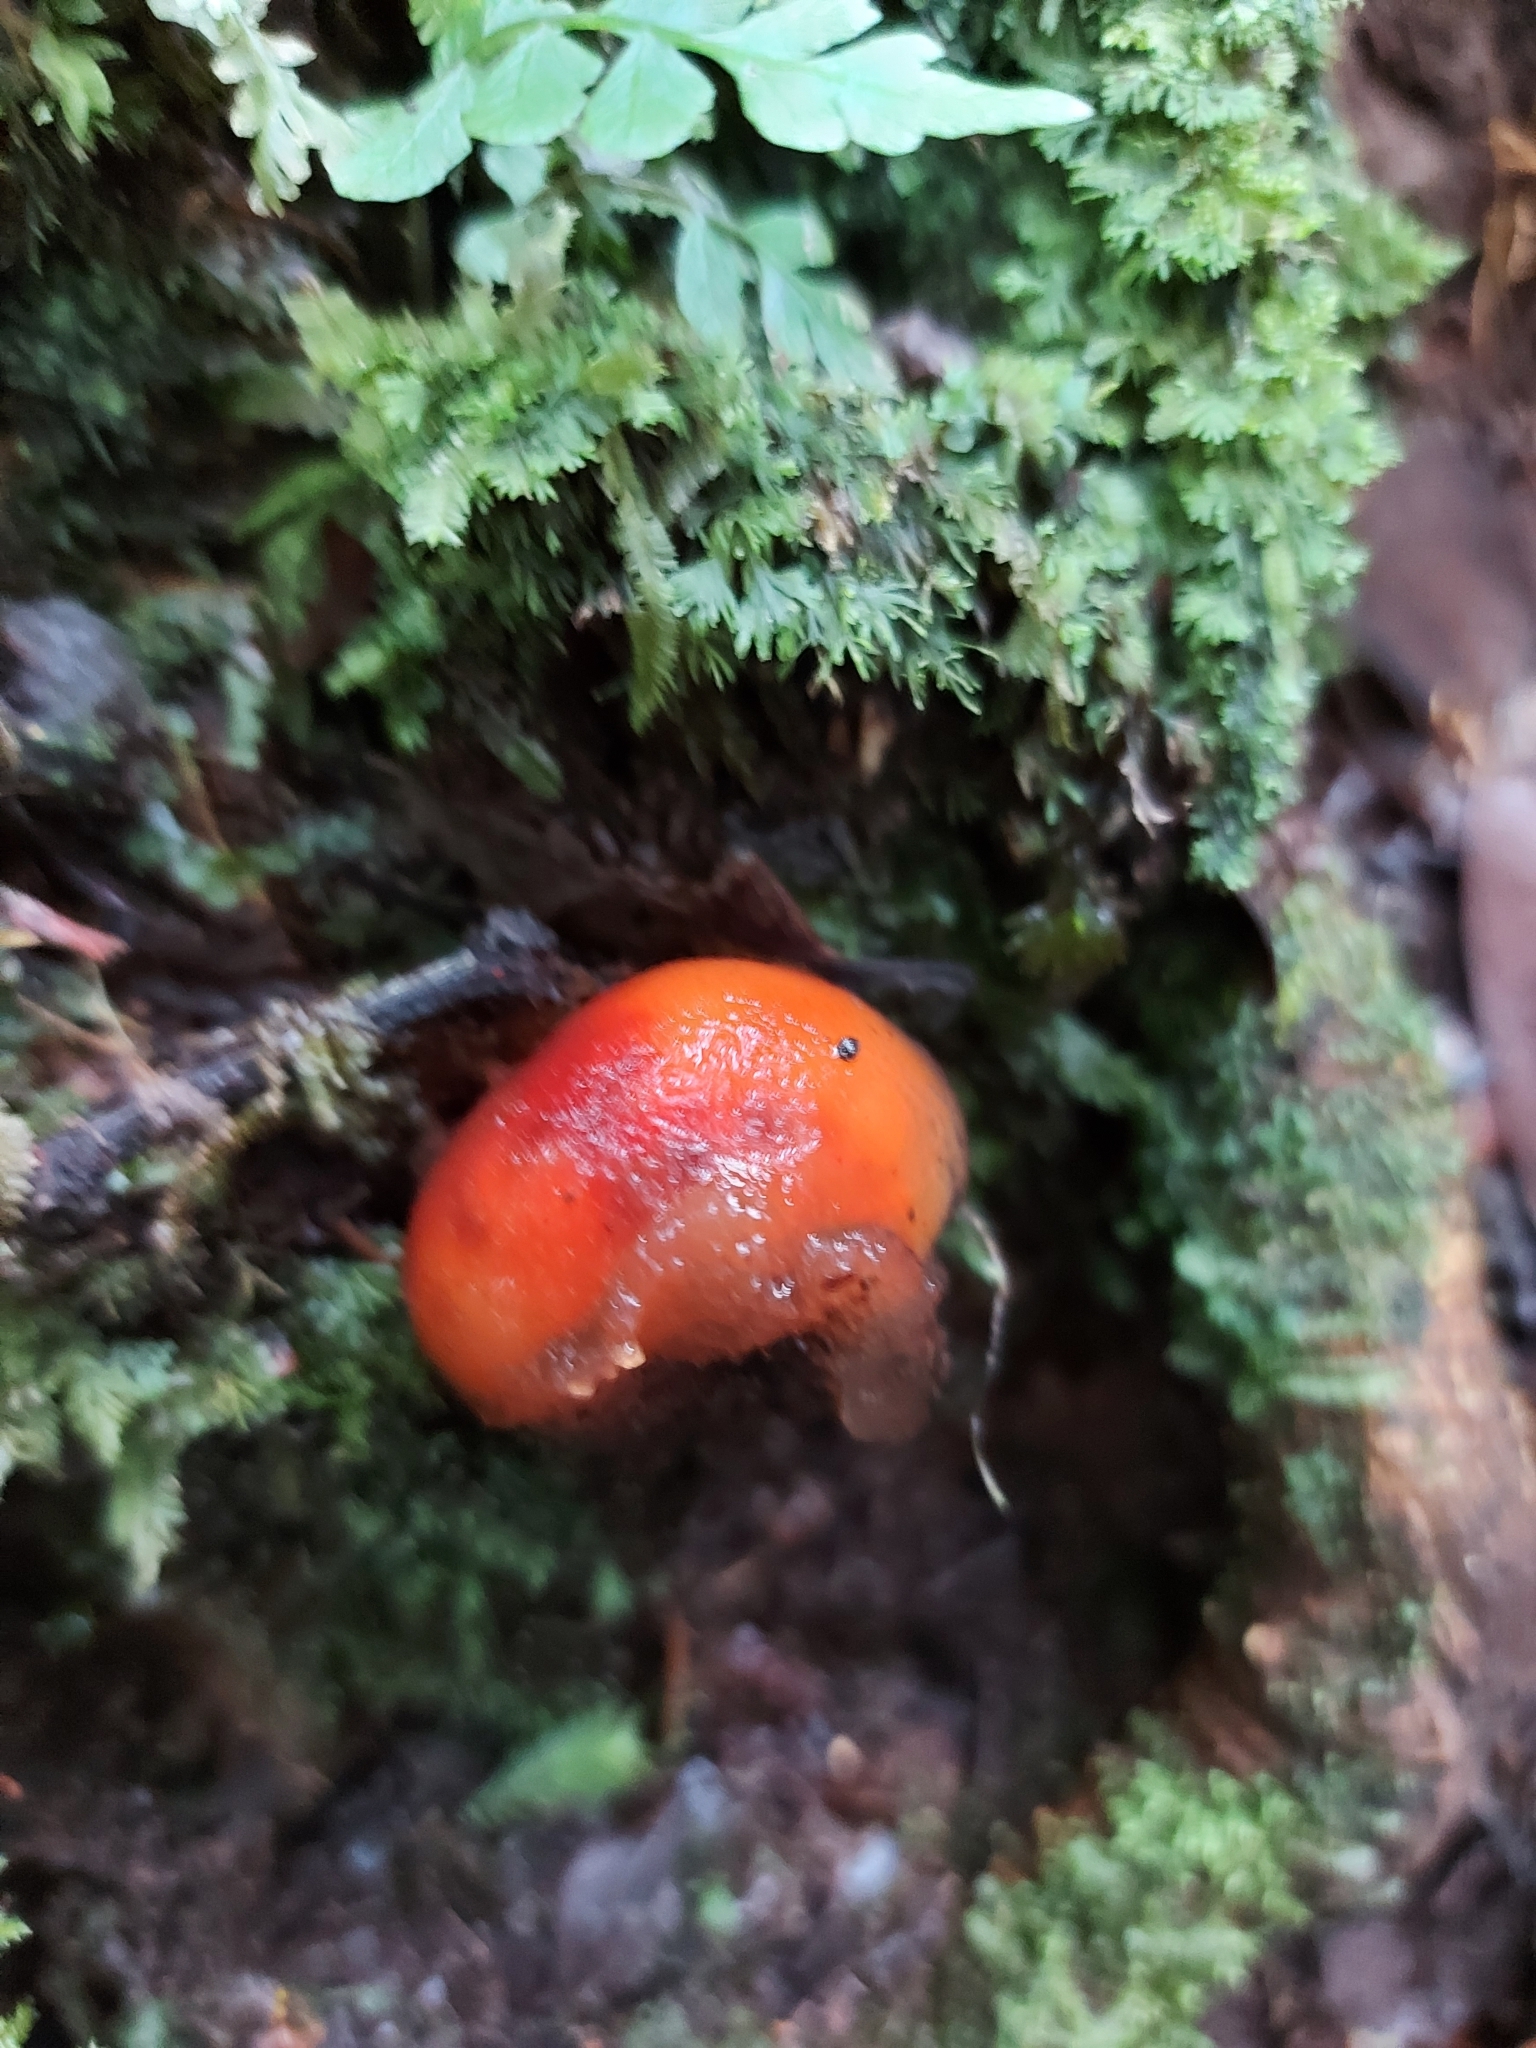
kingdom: Fungi
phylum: Basidiomycota
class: Agaricomycetes
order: Boletales
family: Calostomataceae
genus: Calostoma
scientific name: Calostoma cinnabarinum
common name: Stalked puffball-in-aspic
